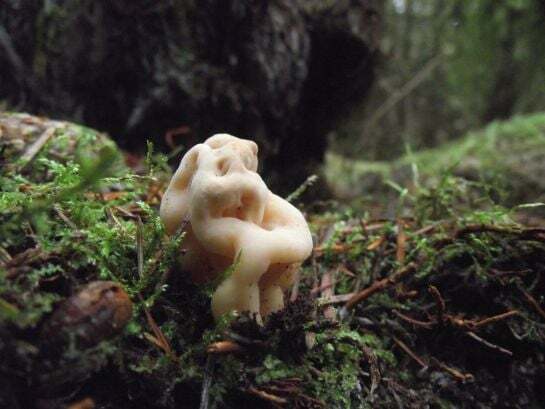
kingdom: Fungi
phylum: Ascomycota
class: Pezizomycetes
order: Pezizales
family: Discinaceae
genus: Hydnotrya
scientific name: Hydnotrya cubispora
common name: Cubed fold truffle
